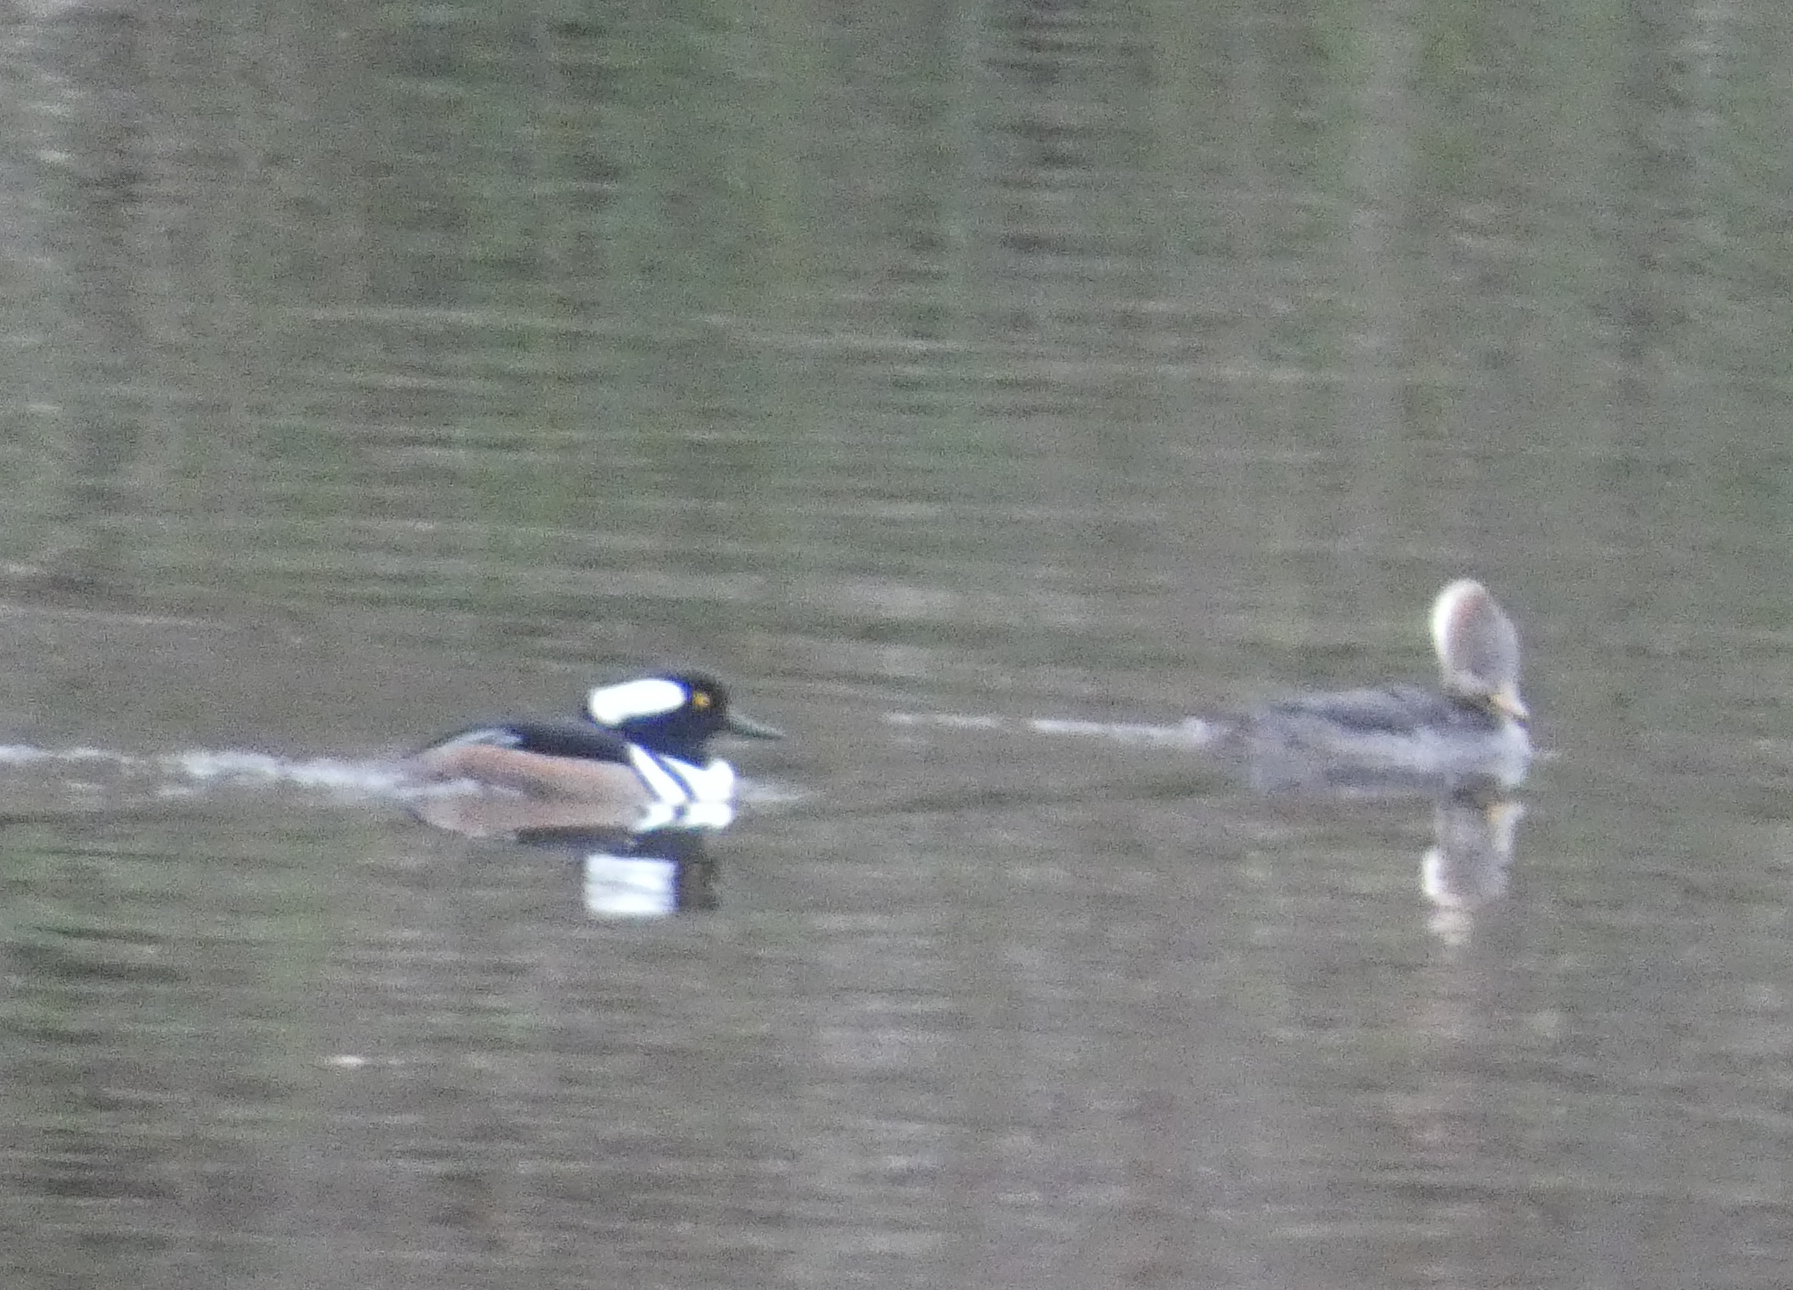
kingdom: Animalia
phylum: Chordata
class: Aves
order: Anseriformes
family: Anatidae
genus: Lophodytes
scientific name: Lophodytes cucullatus
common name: Hooded merganser
